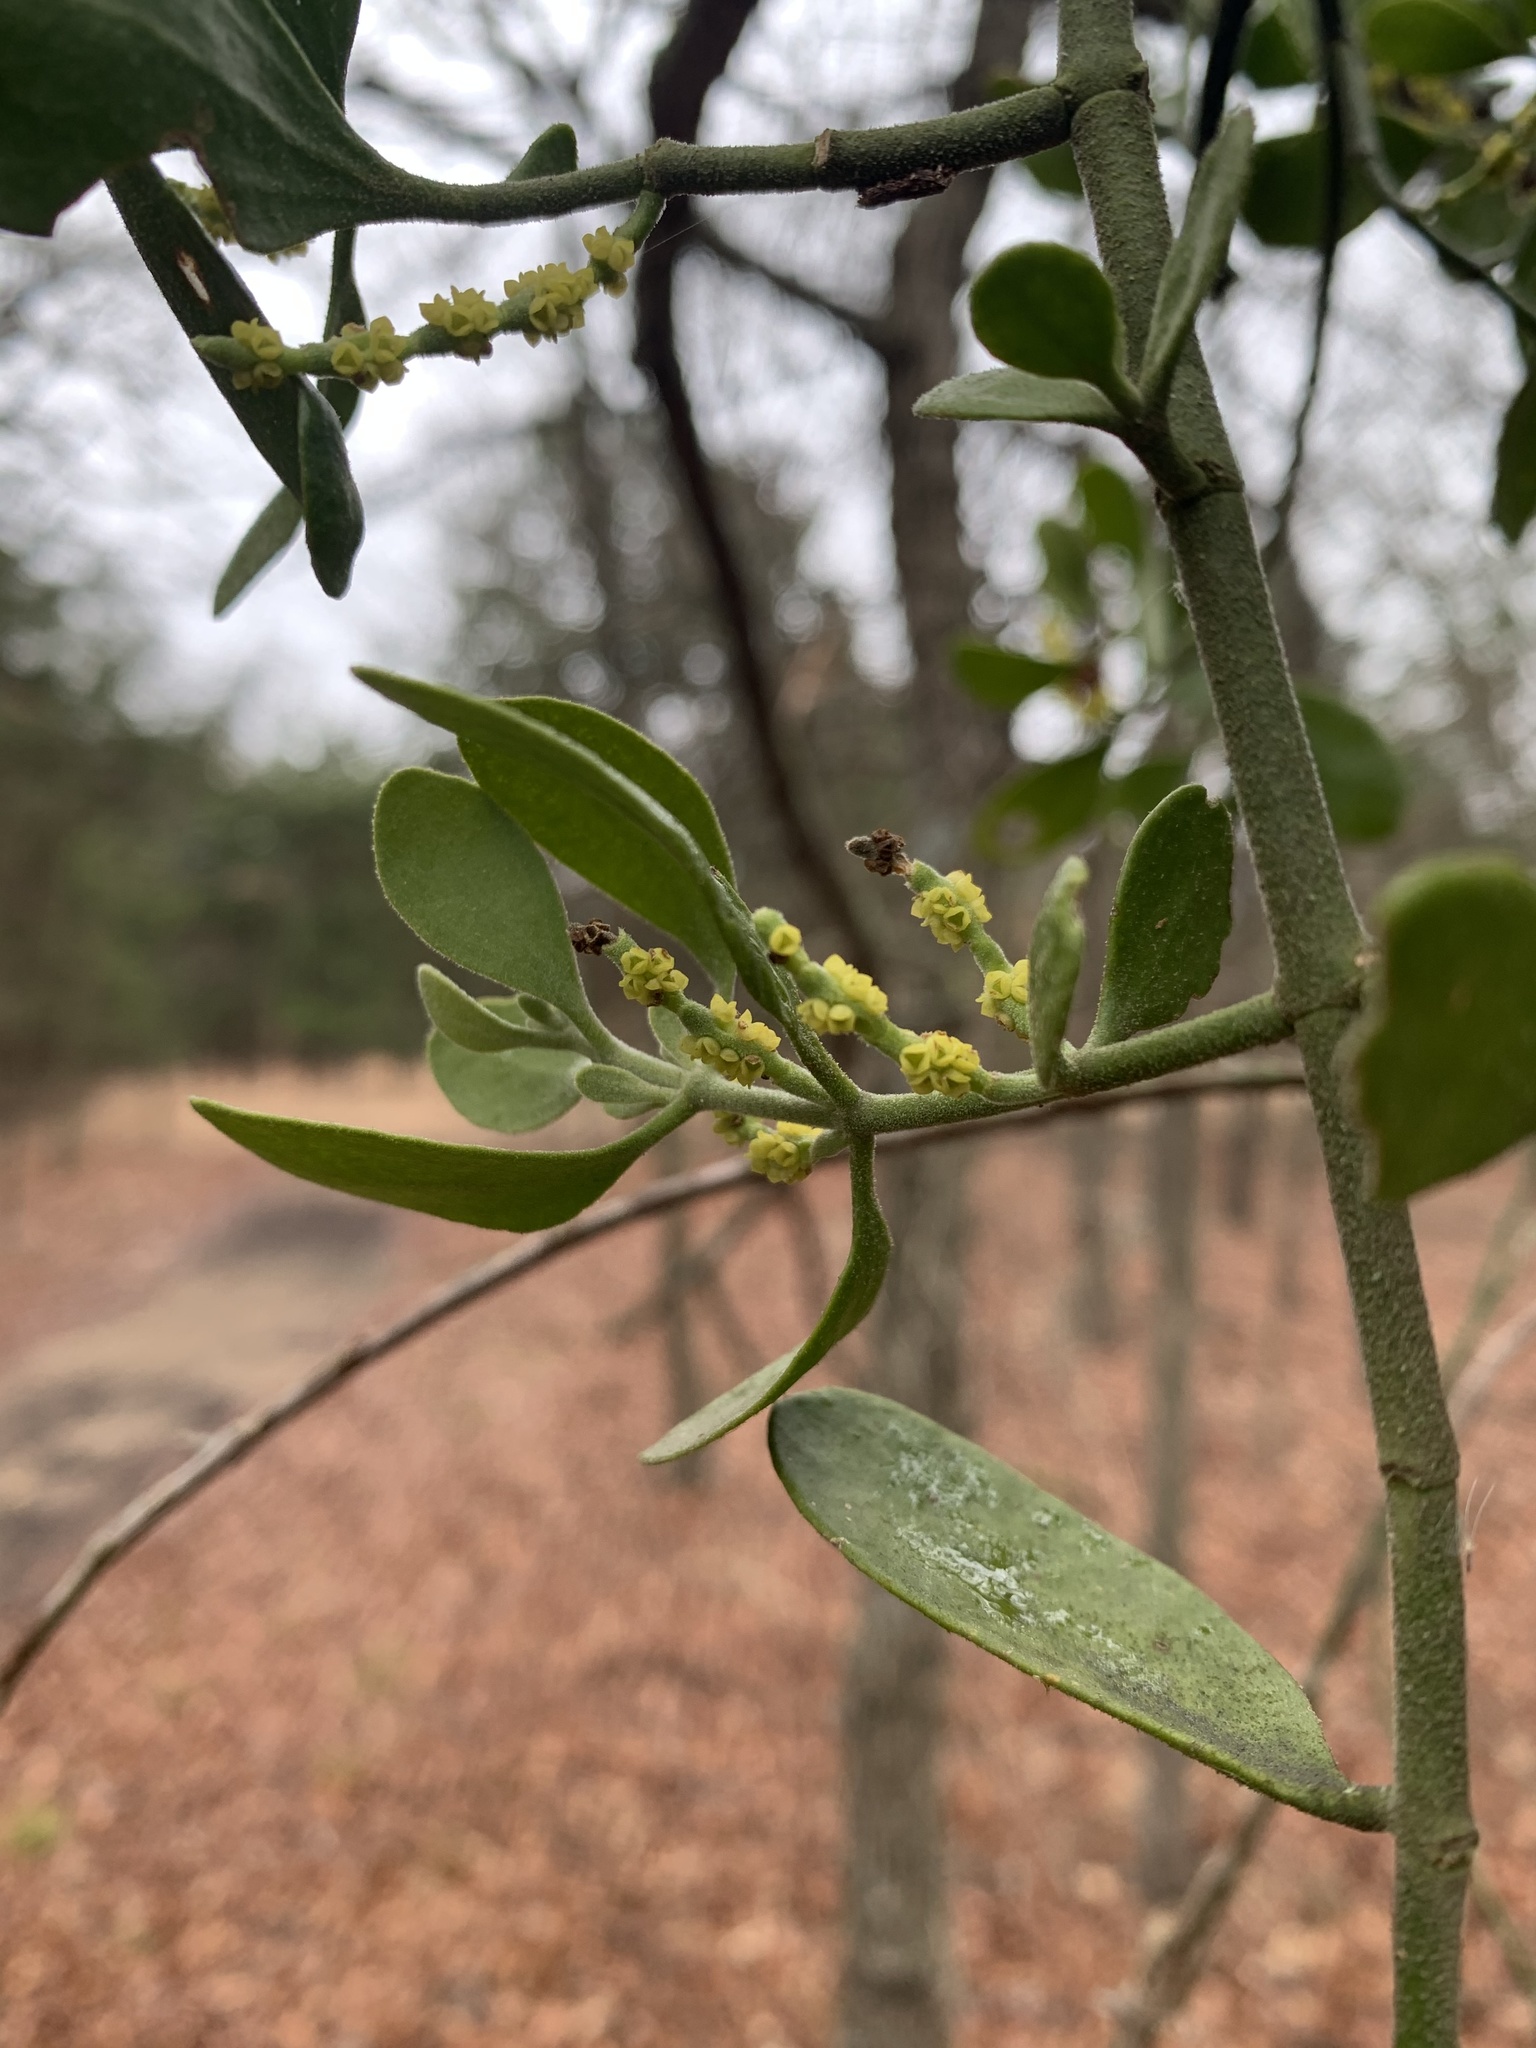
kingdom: Plantae
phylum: Tracheophyta
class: Magnoliopsida
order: Santalales
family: Viscaceae
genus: Phoradendron
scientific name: Phoradendron leucarpum
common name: Pacific mistletoe
